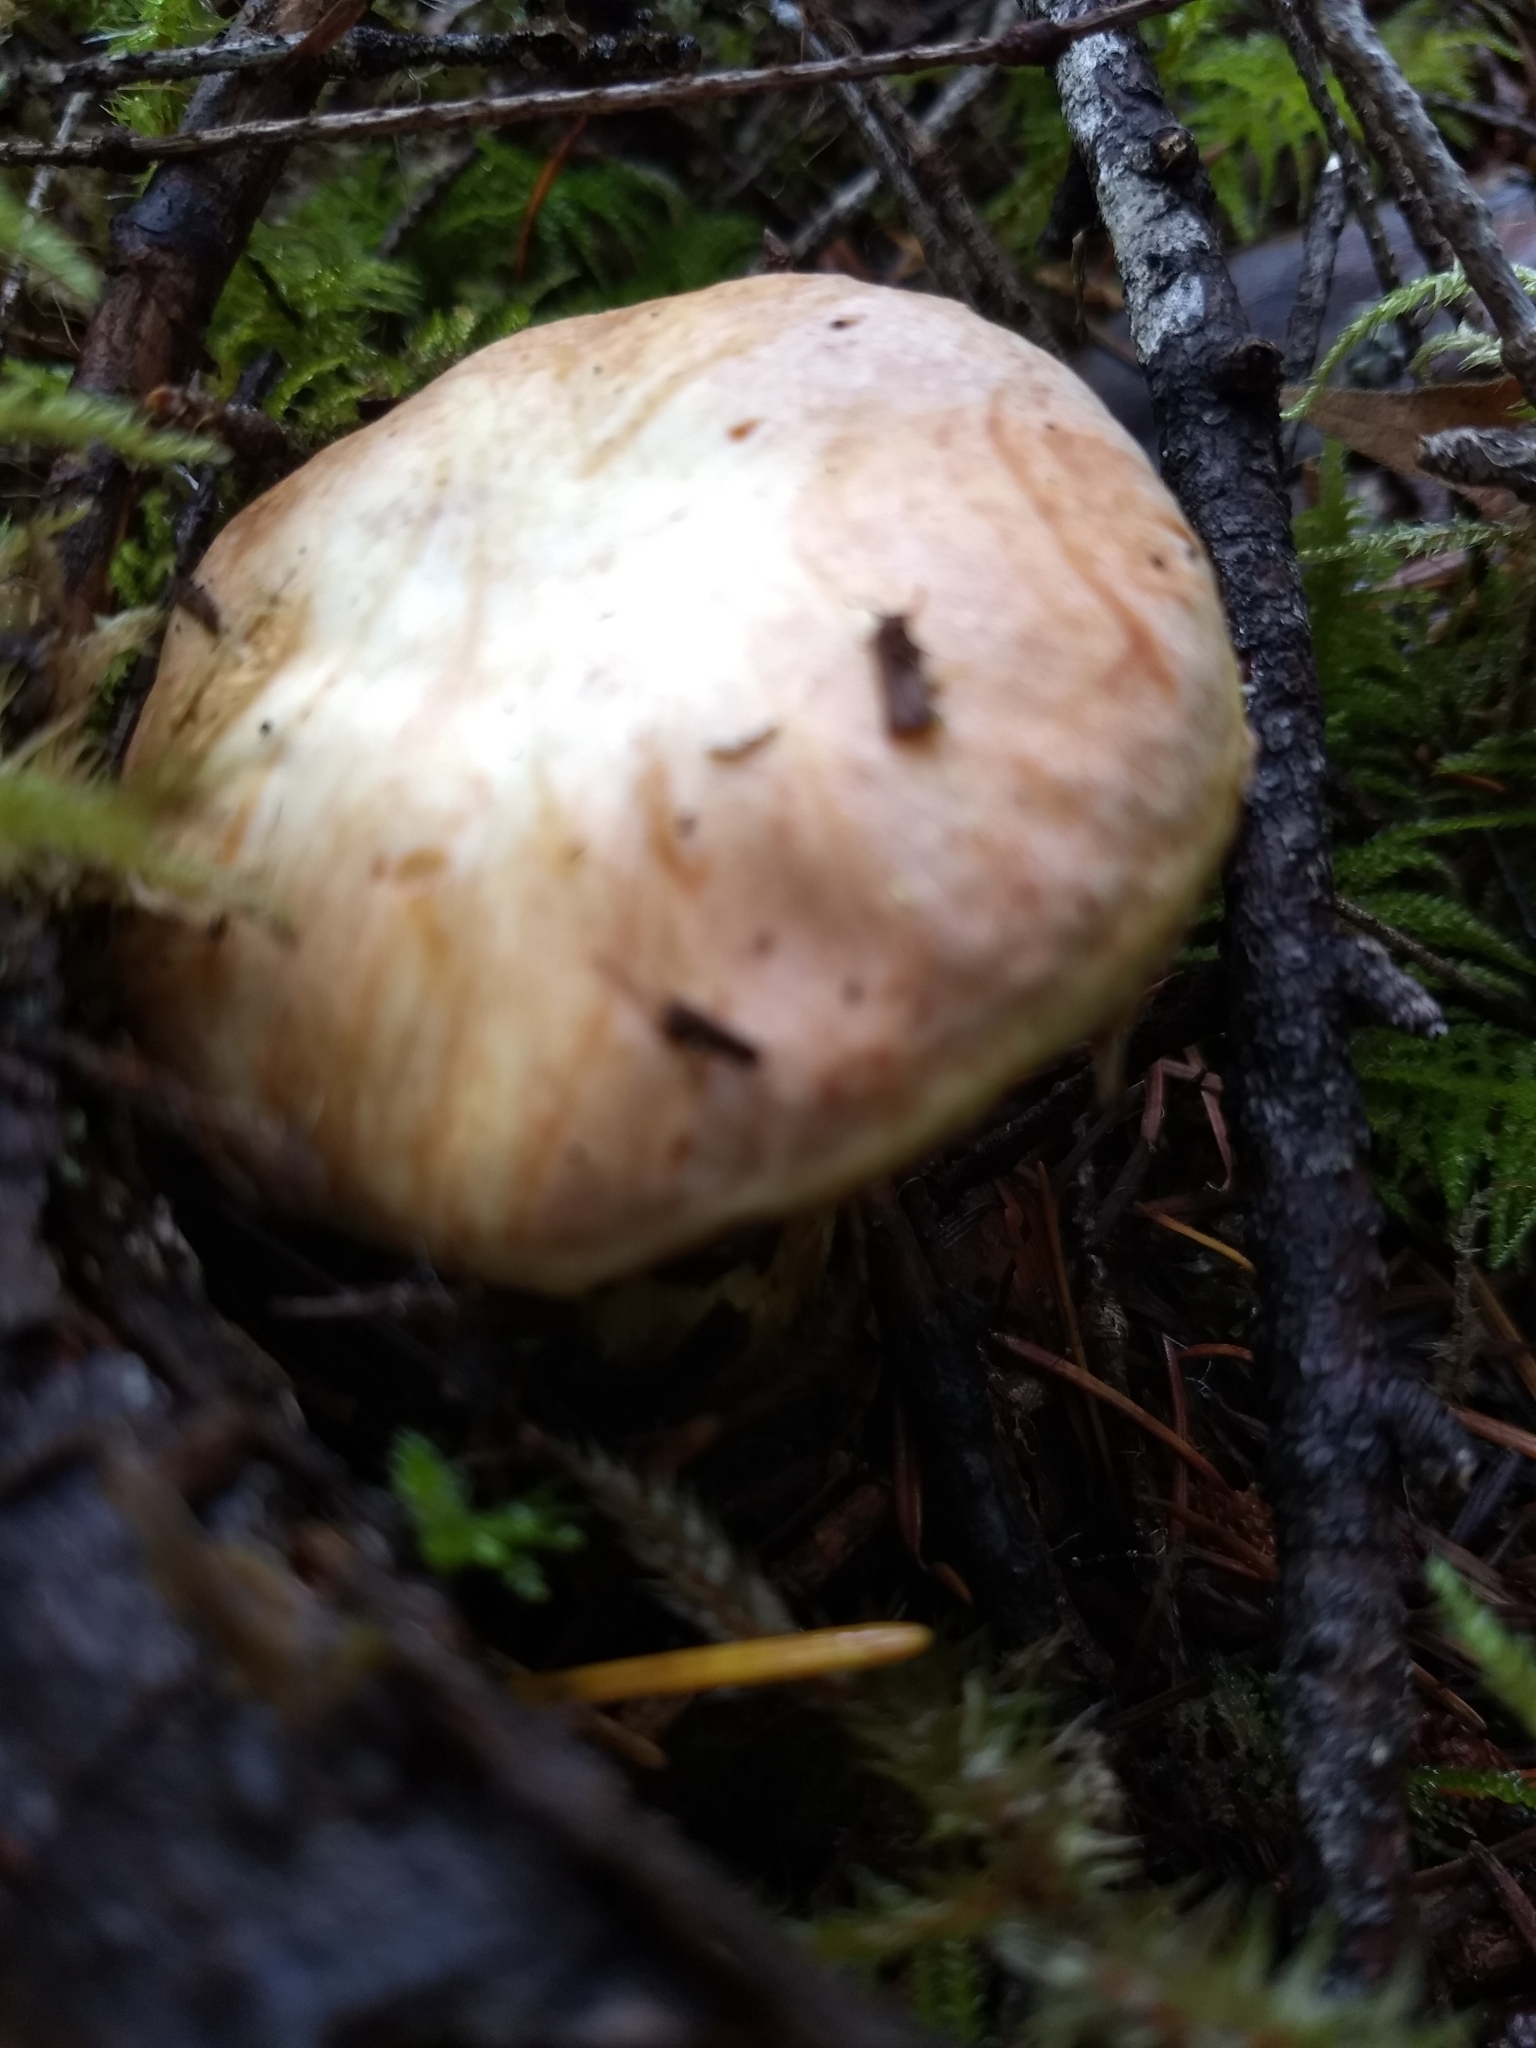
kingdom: Fungi
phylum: Basidiomycota
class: Agaricomycetes
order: Boletales
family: Suillaceae
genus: Suillus
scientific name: Suillus caerulescens
